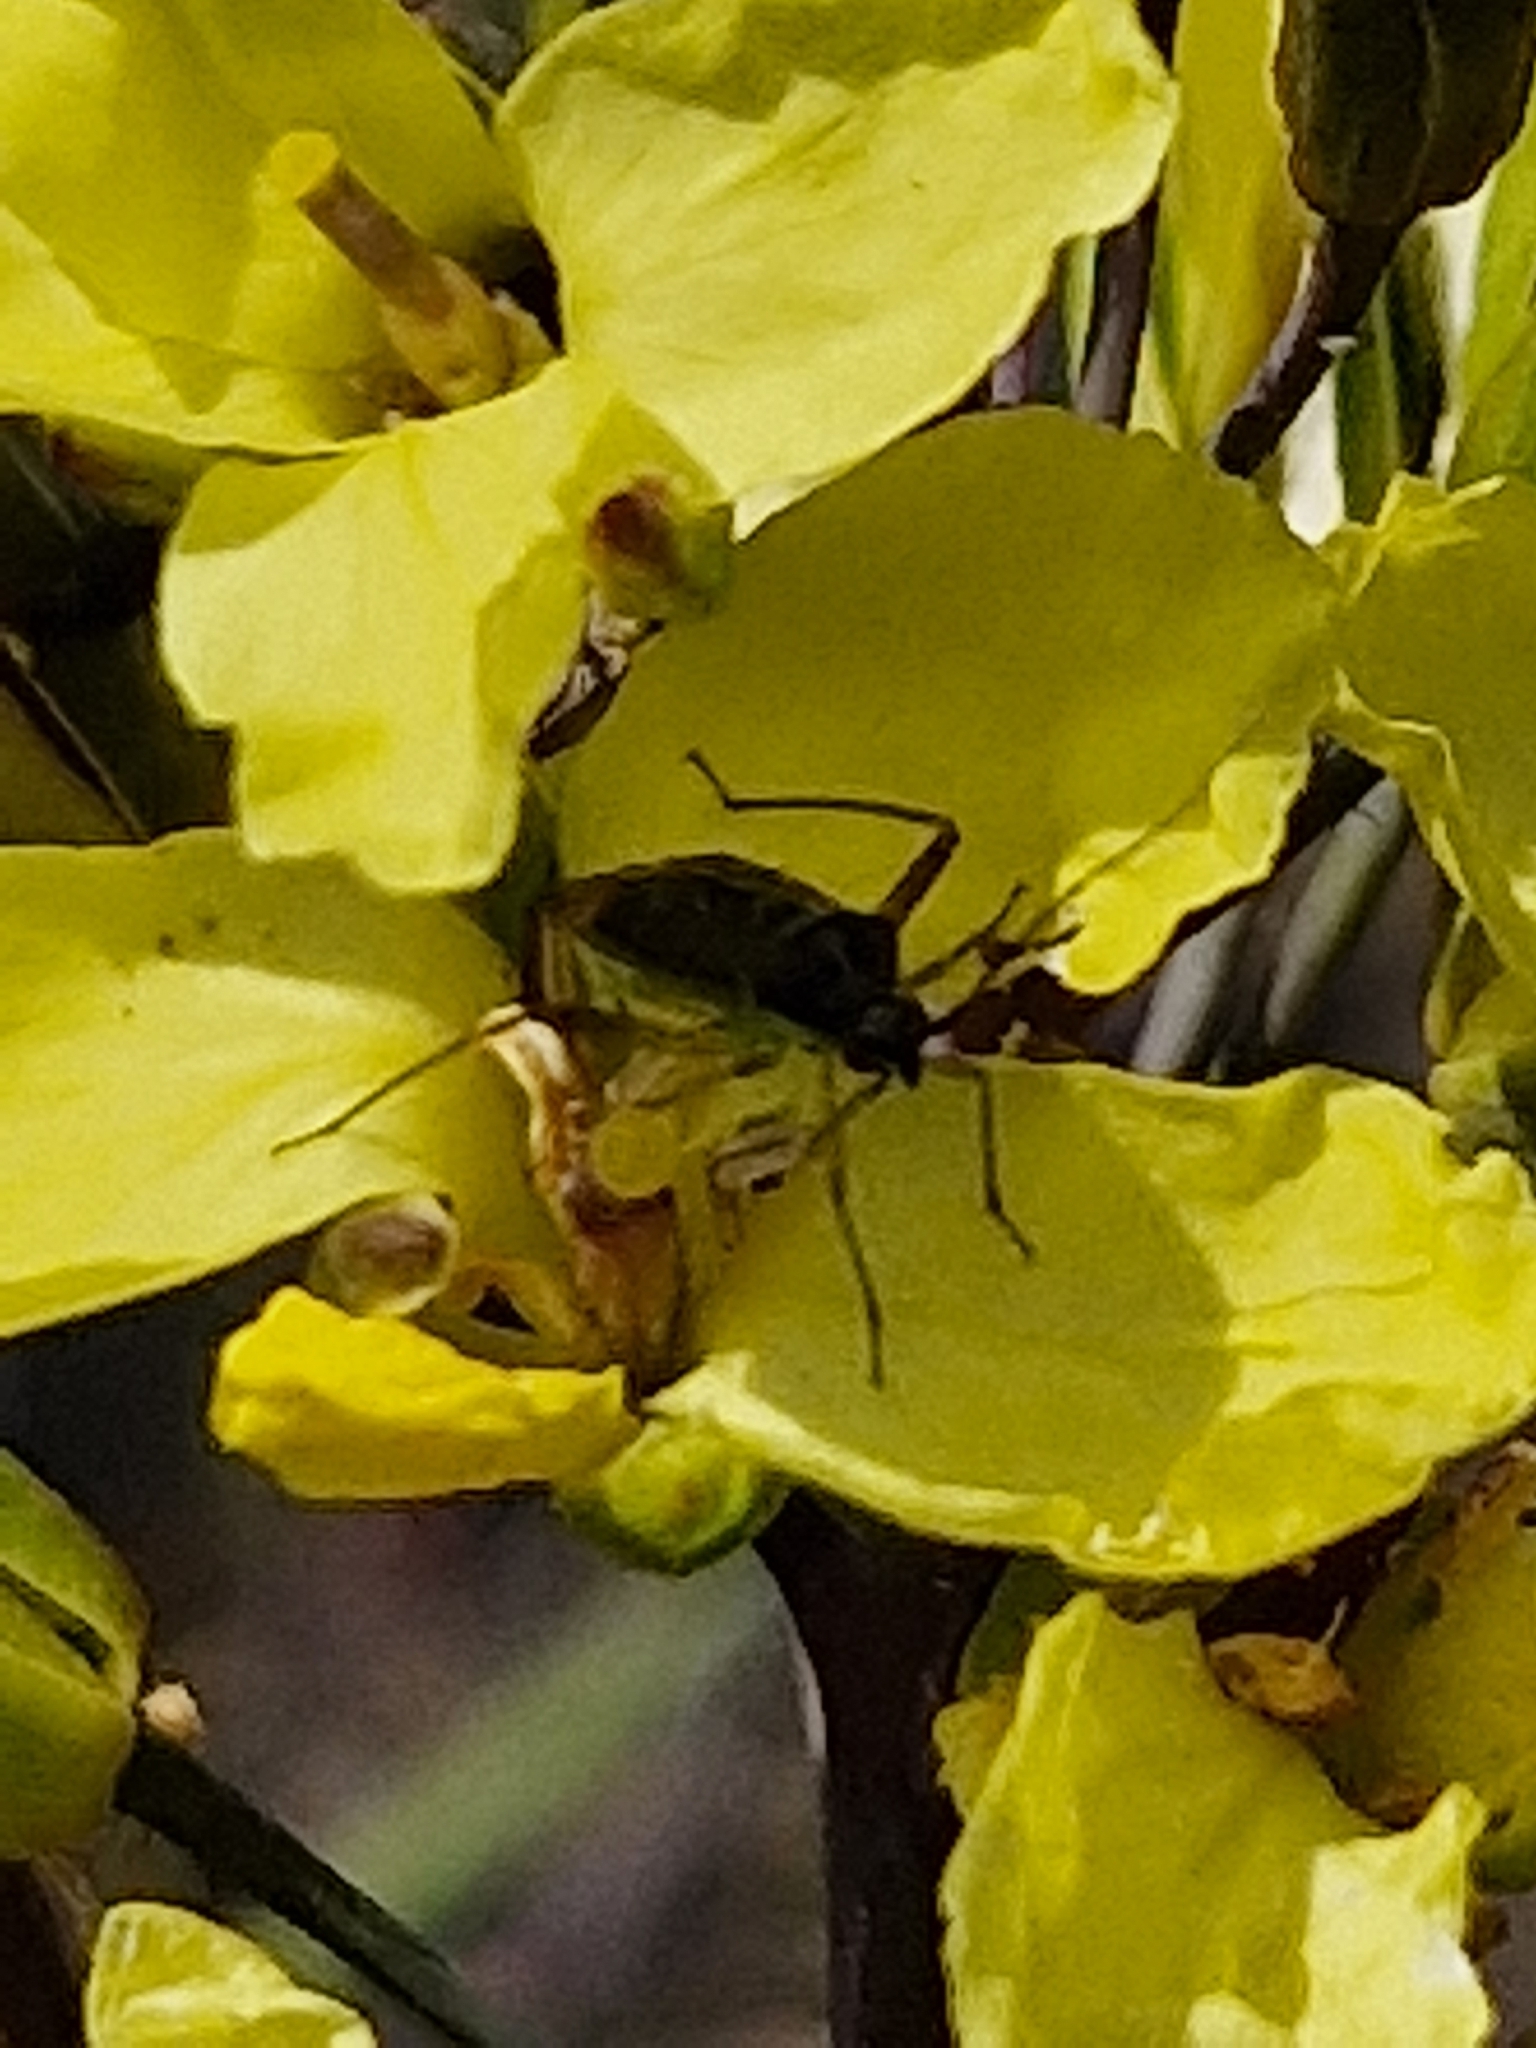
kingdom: Animalia
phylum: Arthropoda
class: Insecta
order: Hemiptera
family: Miridae
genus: Closterotomus
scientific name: Closterotomus trivialis
